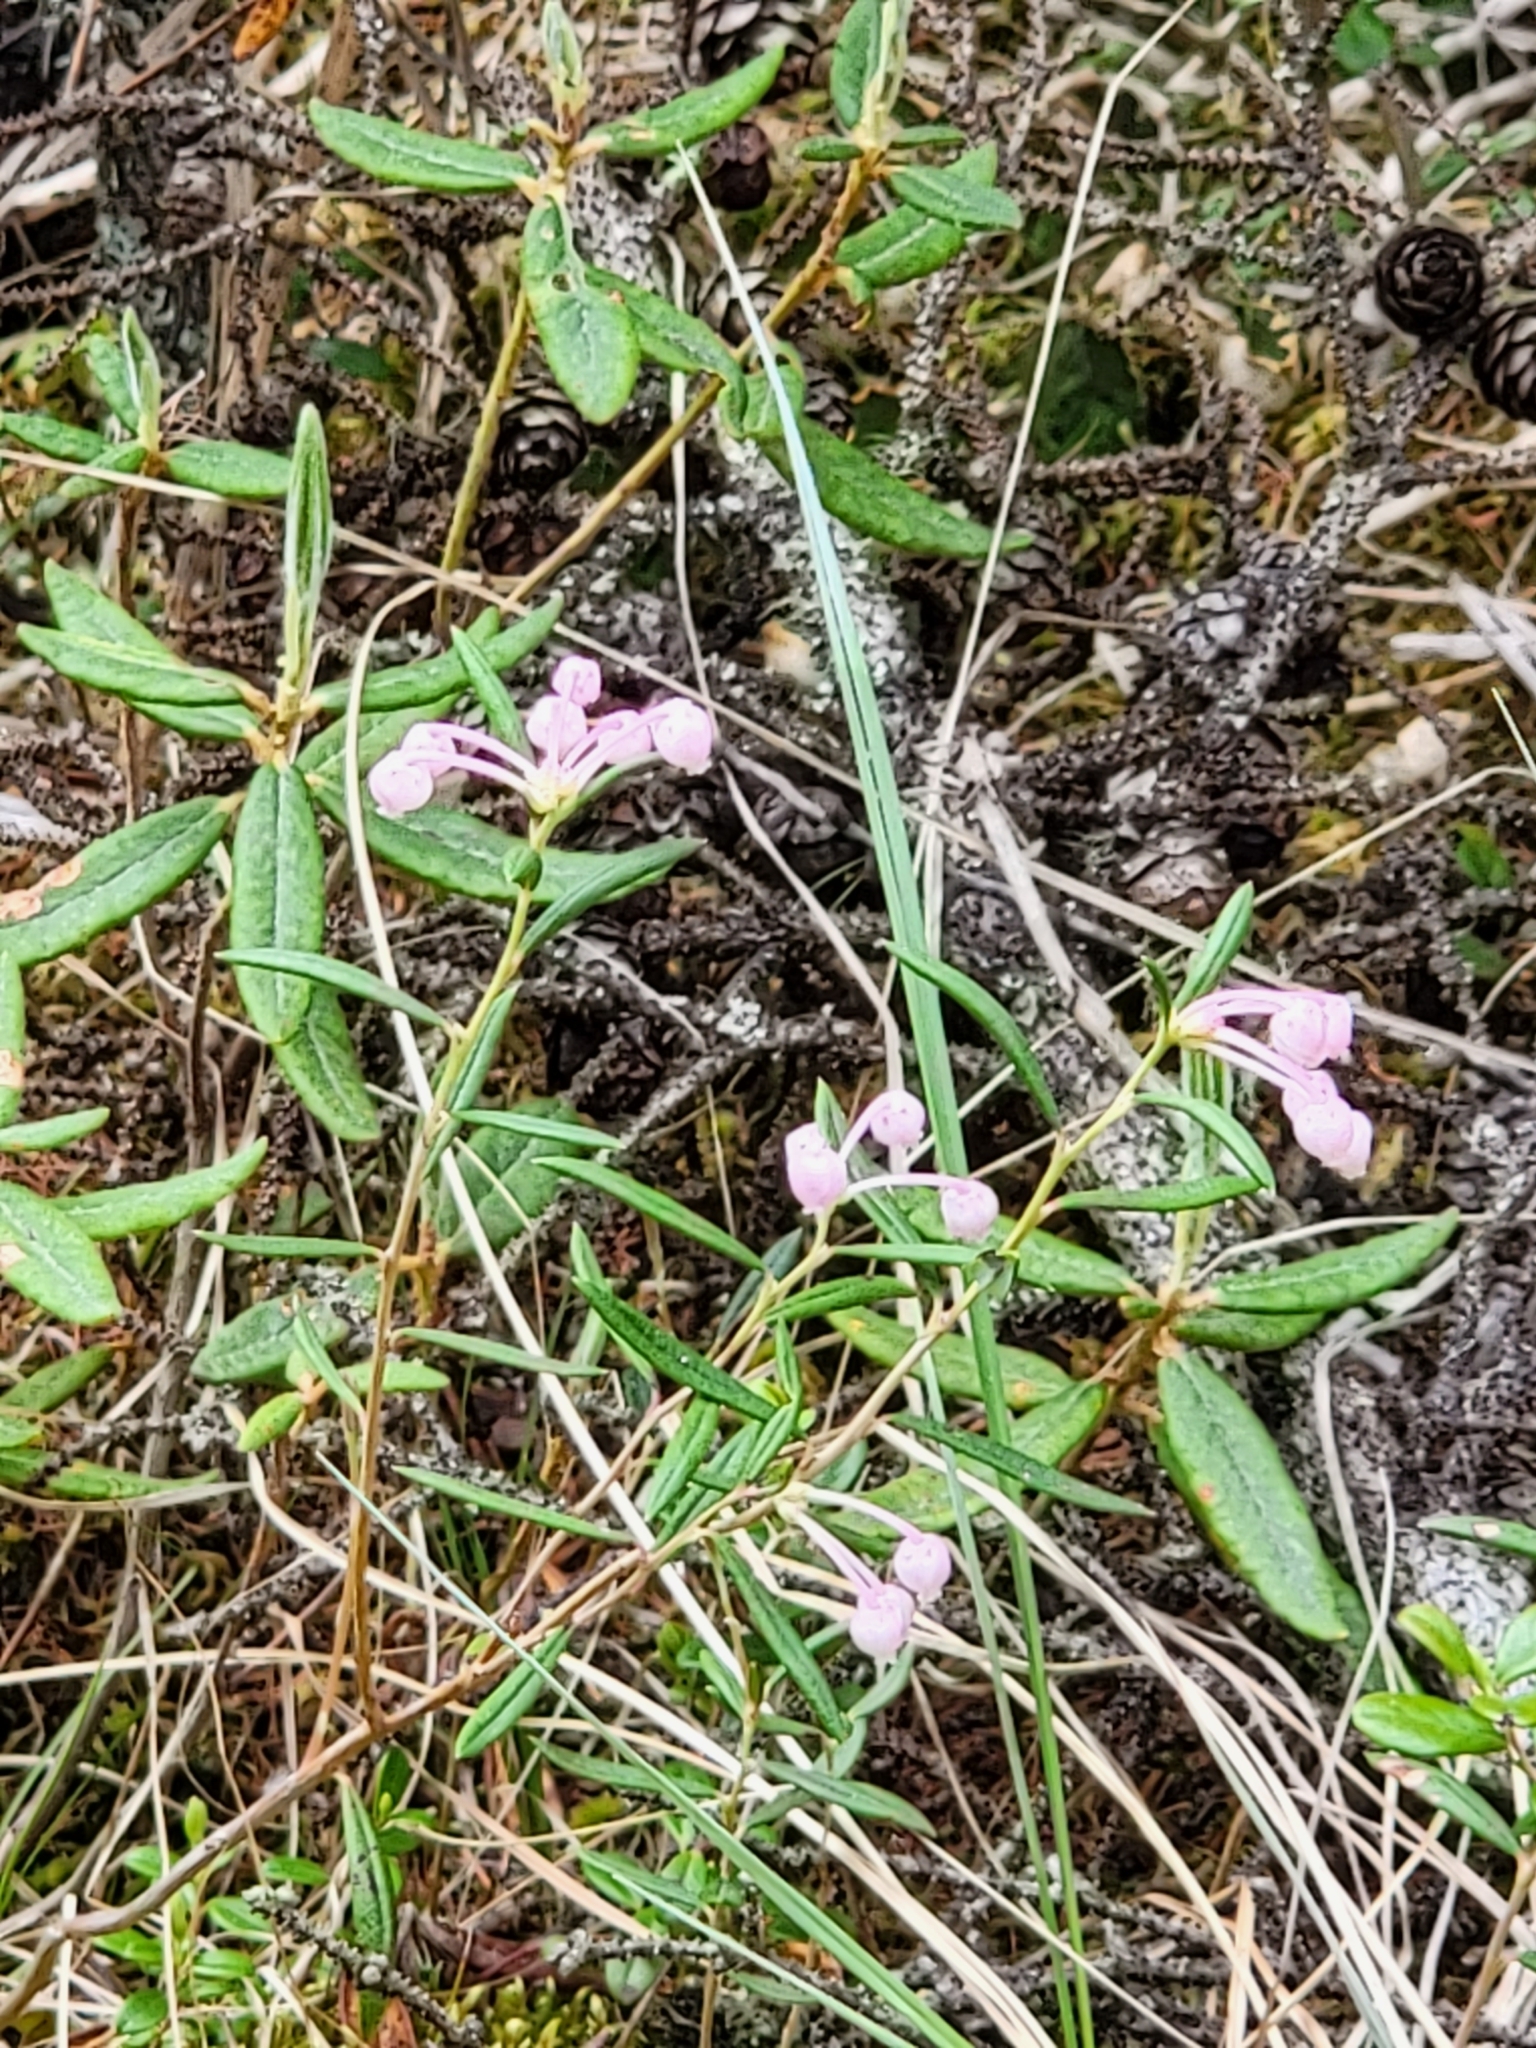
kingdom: Plantae
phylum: Tracheophyta
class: Magnoliopsida
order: Ericales
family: Ericaceae
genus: Andromeda
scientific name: Andromeda polifolia
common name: Bog-rosemary
